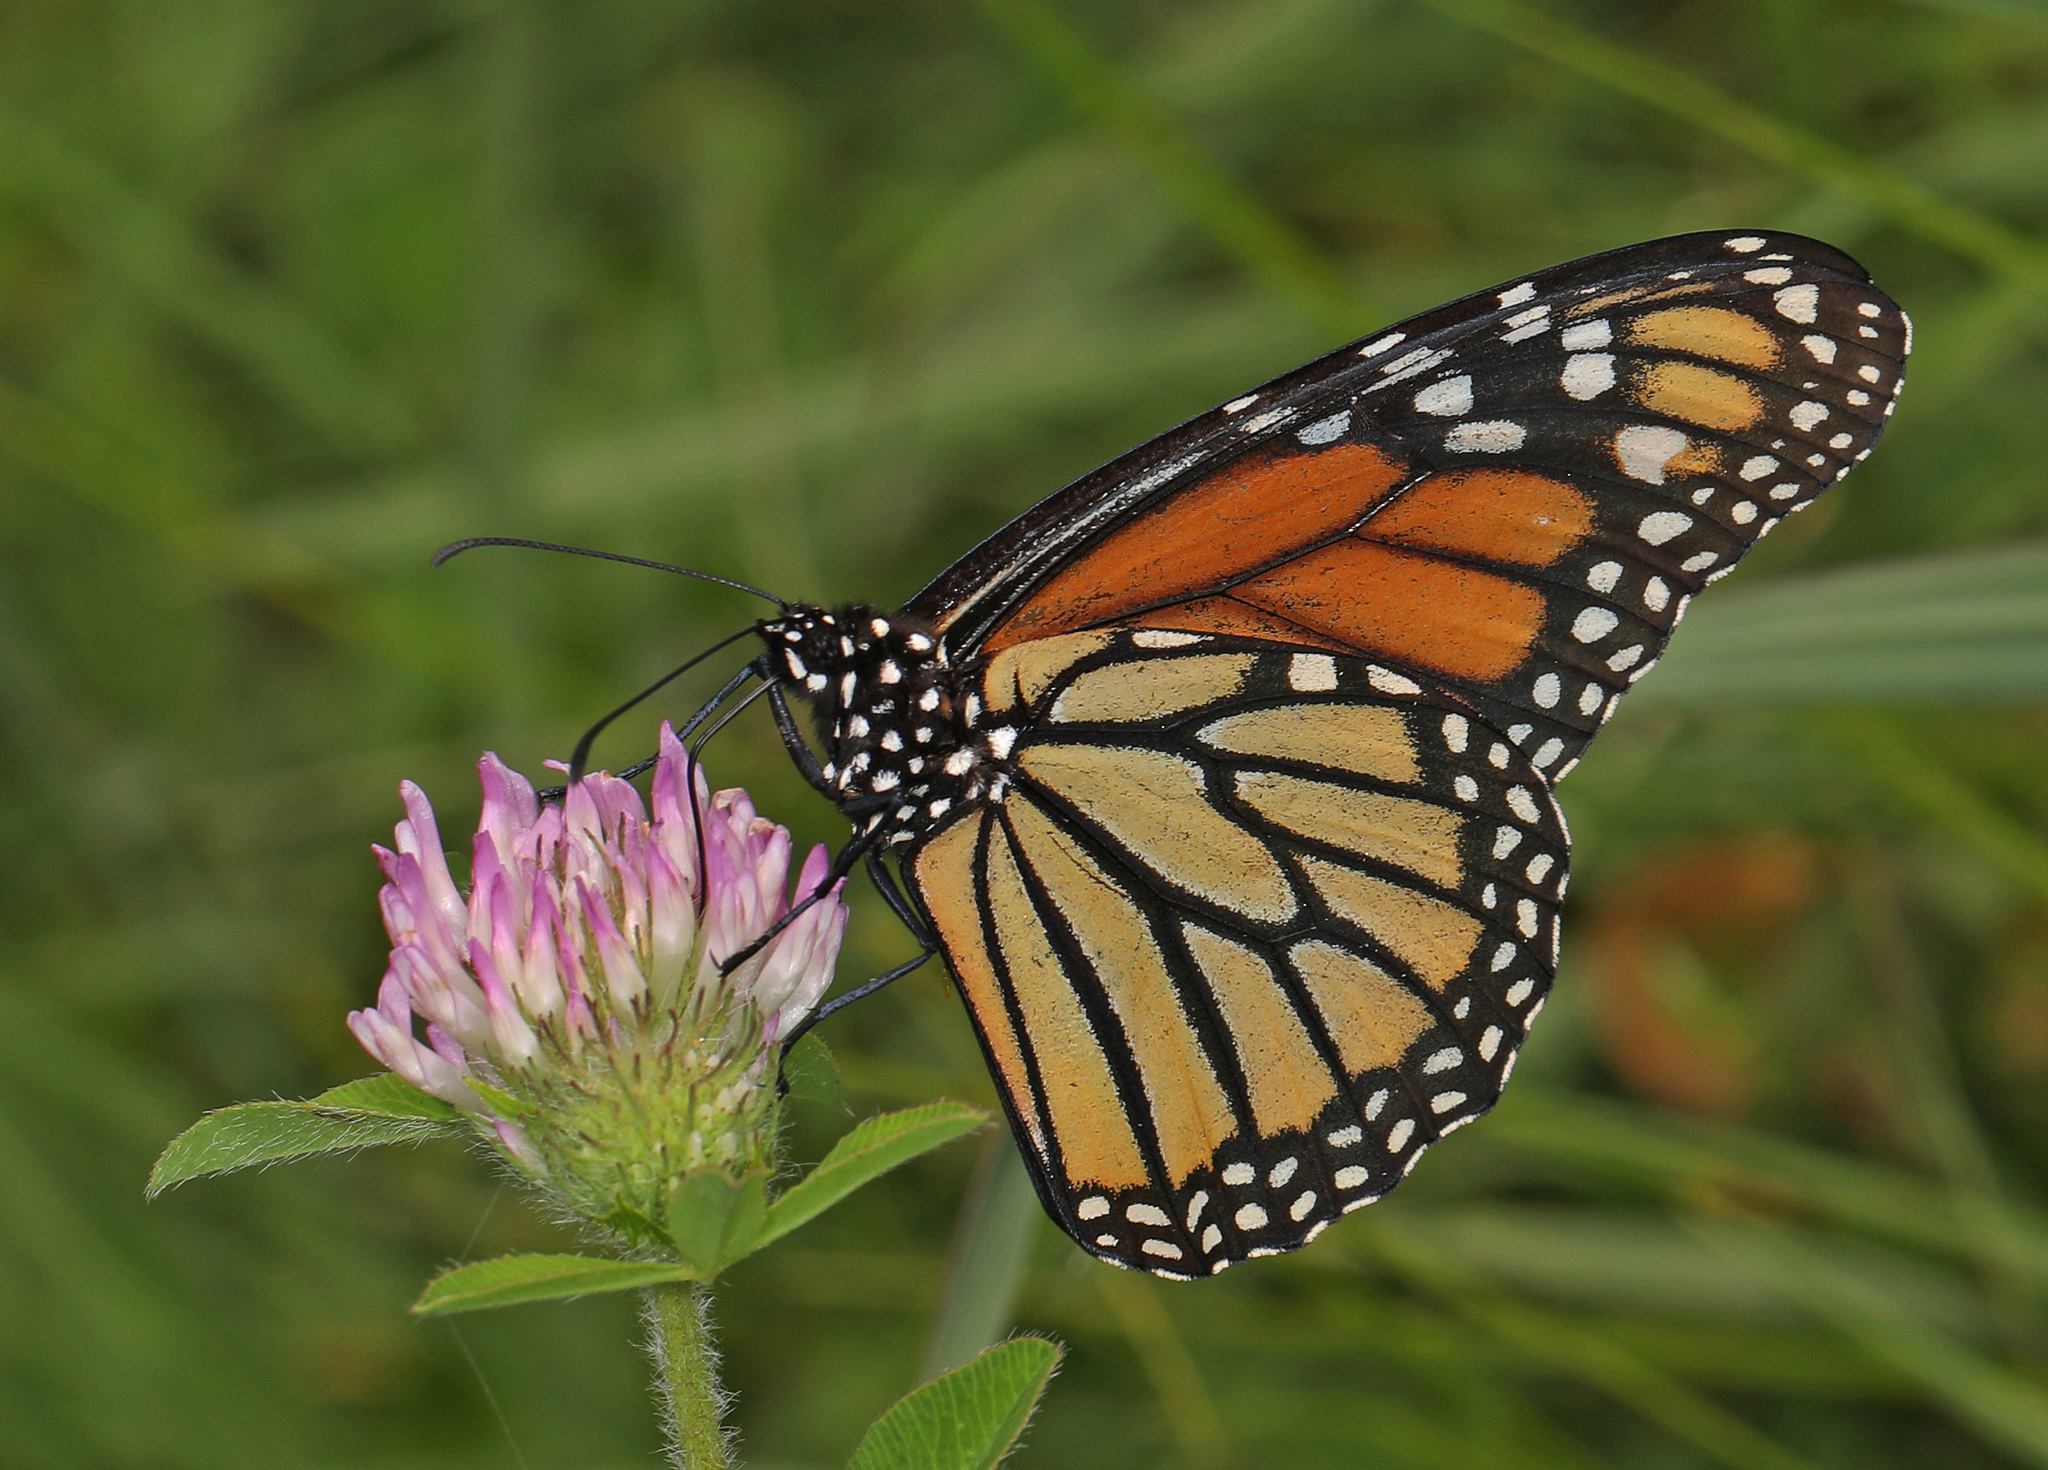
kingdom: Animalia
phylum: Arthropoda
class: Insecta
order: Lepidoptera
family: Nymphalidae
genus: Danaus
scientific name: Danaus plexippus
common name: Monarch
